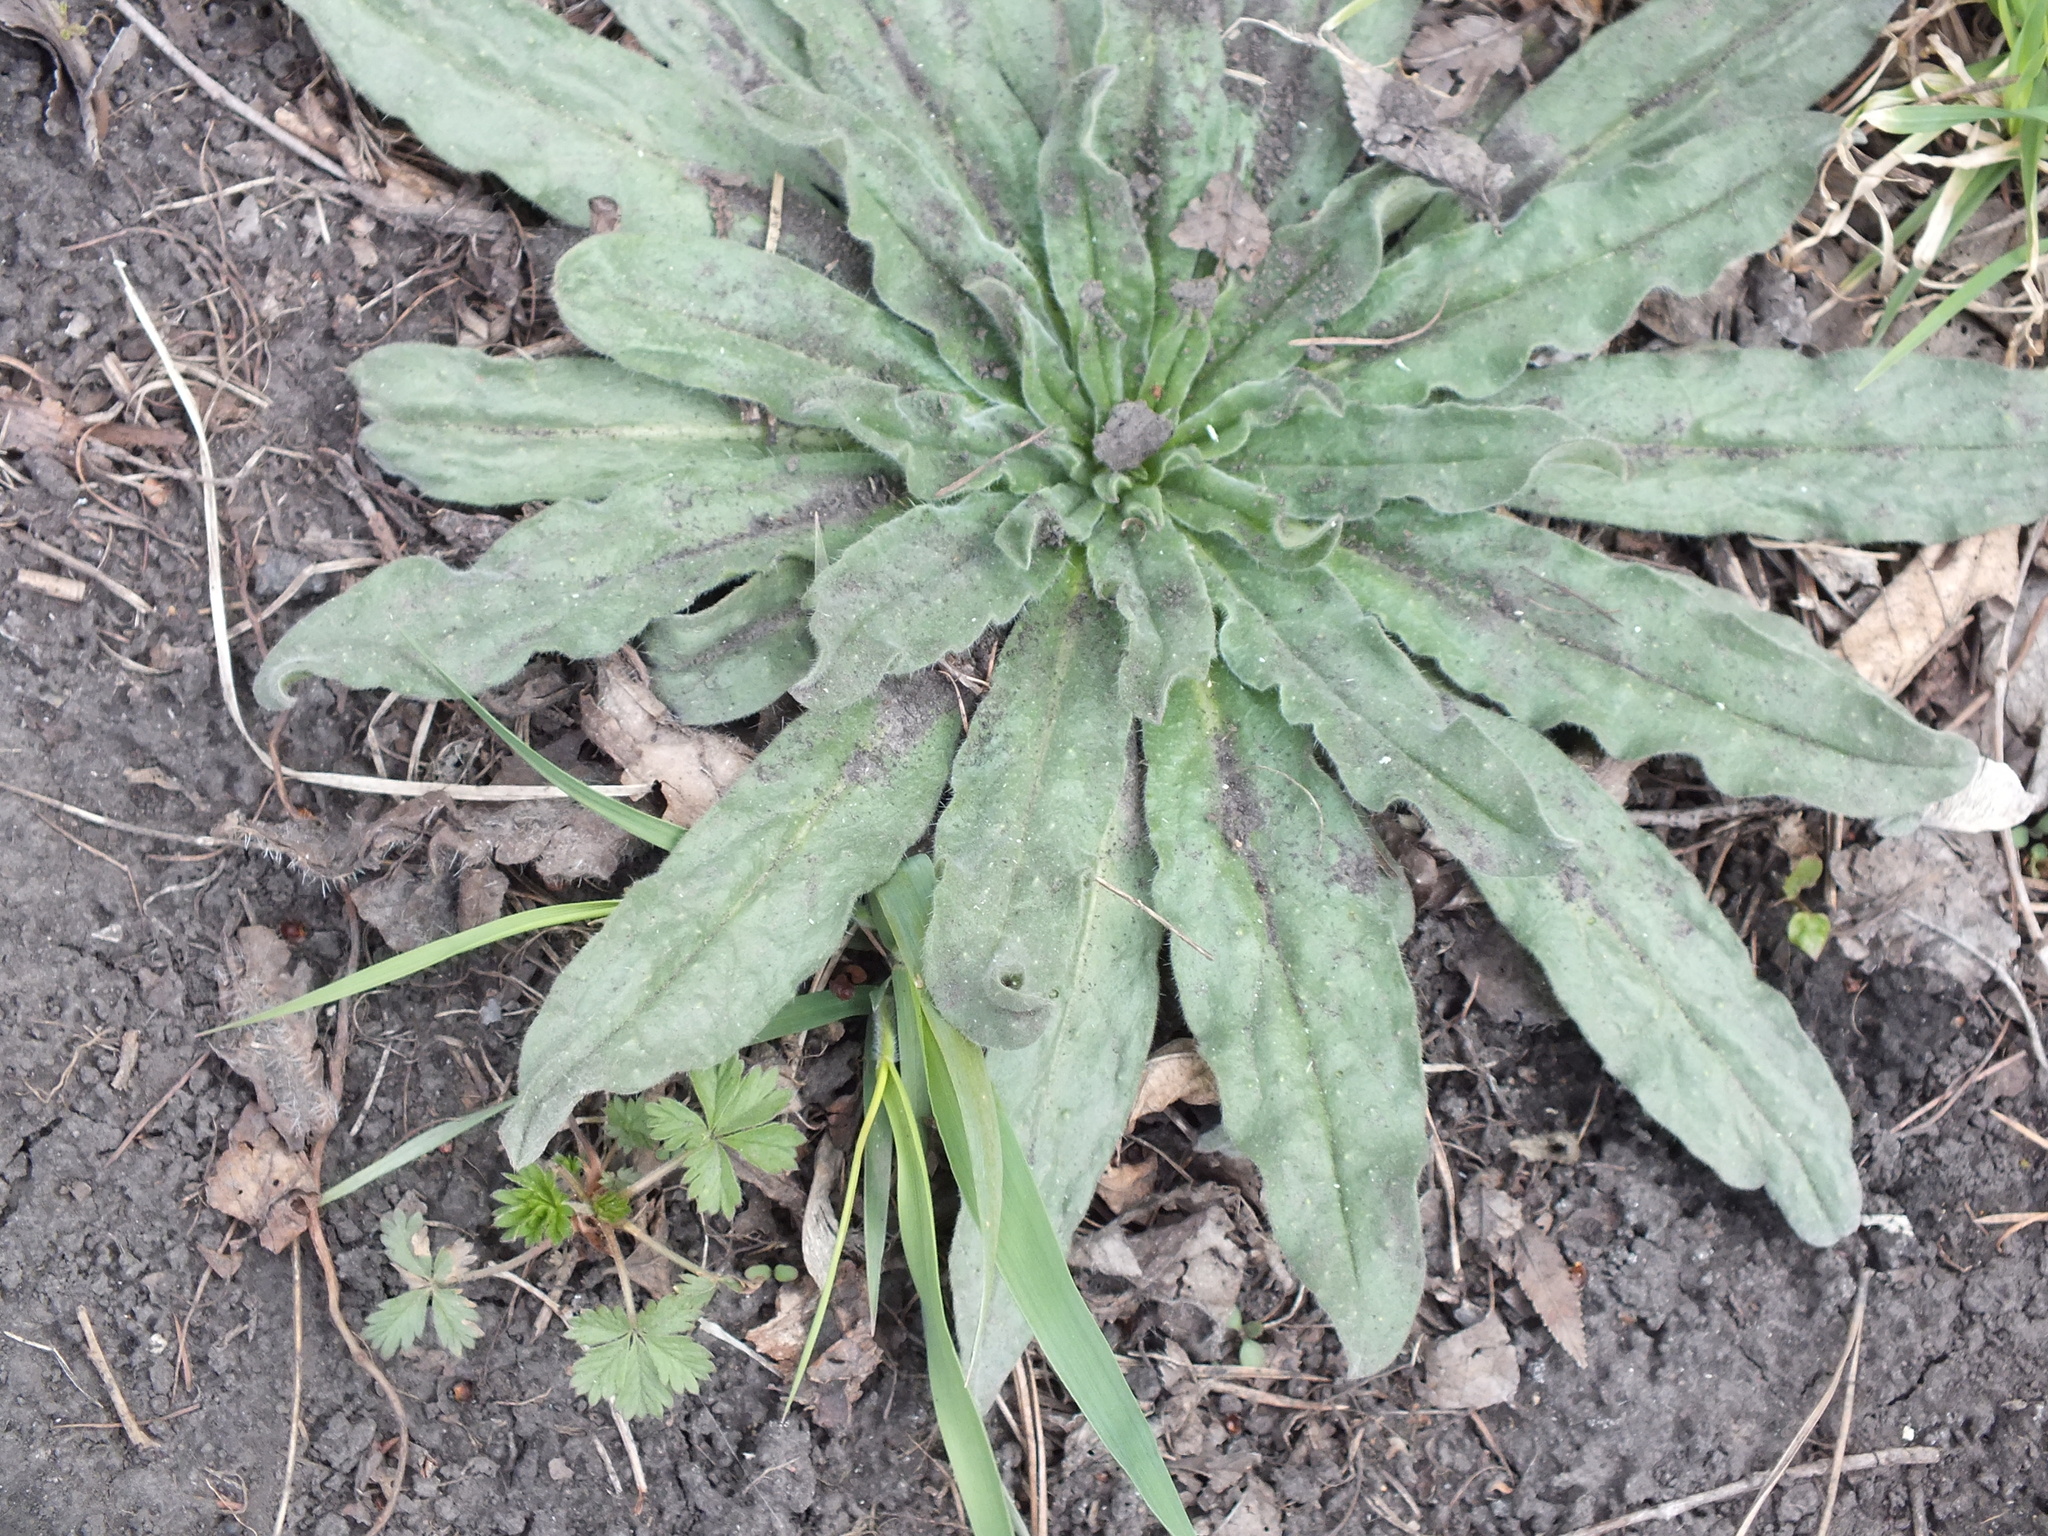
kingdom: Plantae
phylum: Tracheophyta
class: Magnoliopsida
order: Boraginales
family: Boraginaceae
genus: Echium
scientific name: Echium vulgare
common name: Common viper's bugloss
